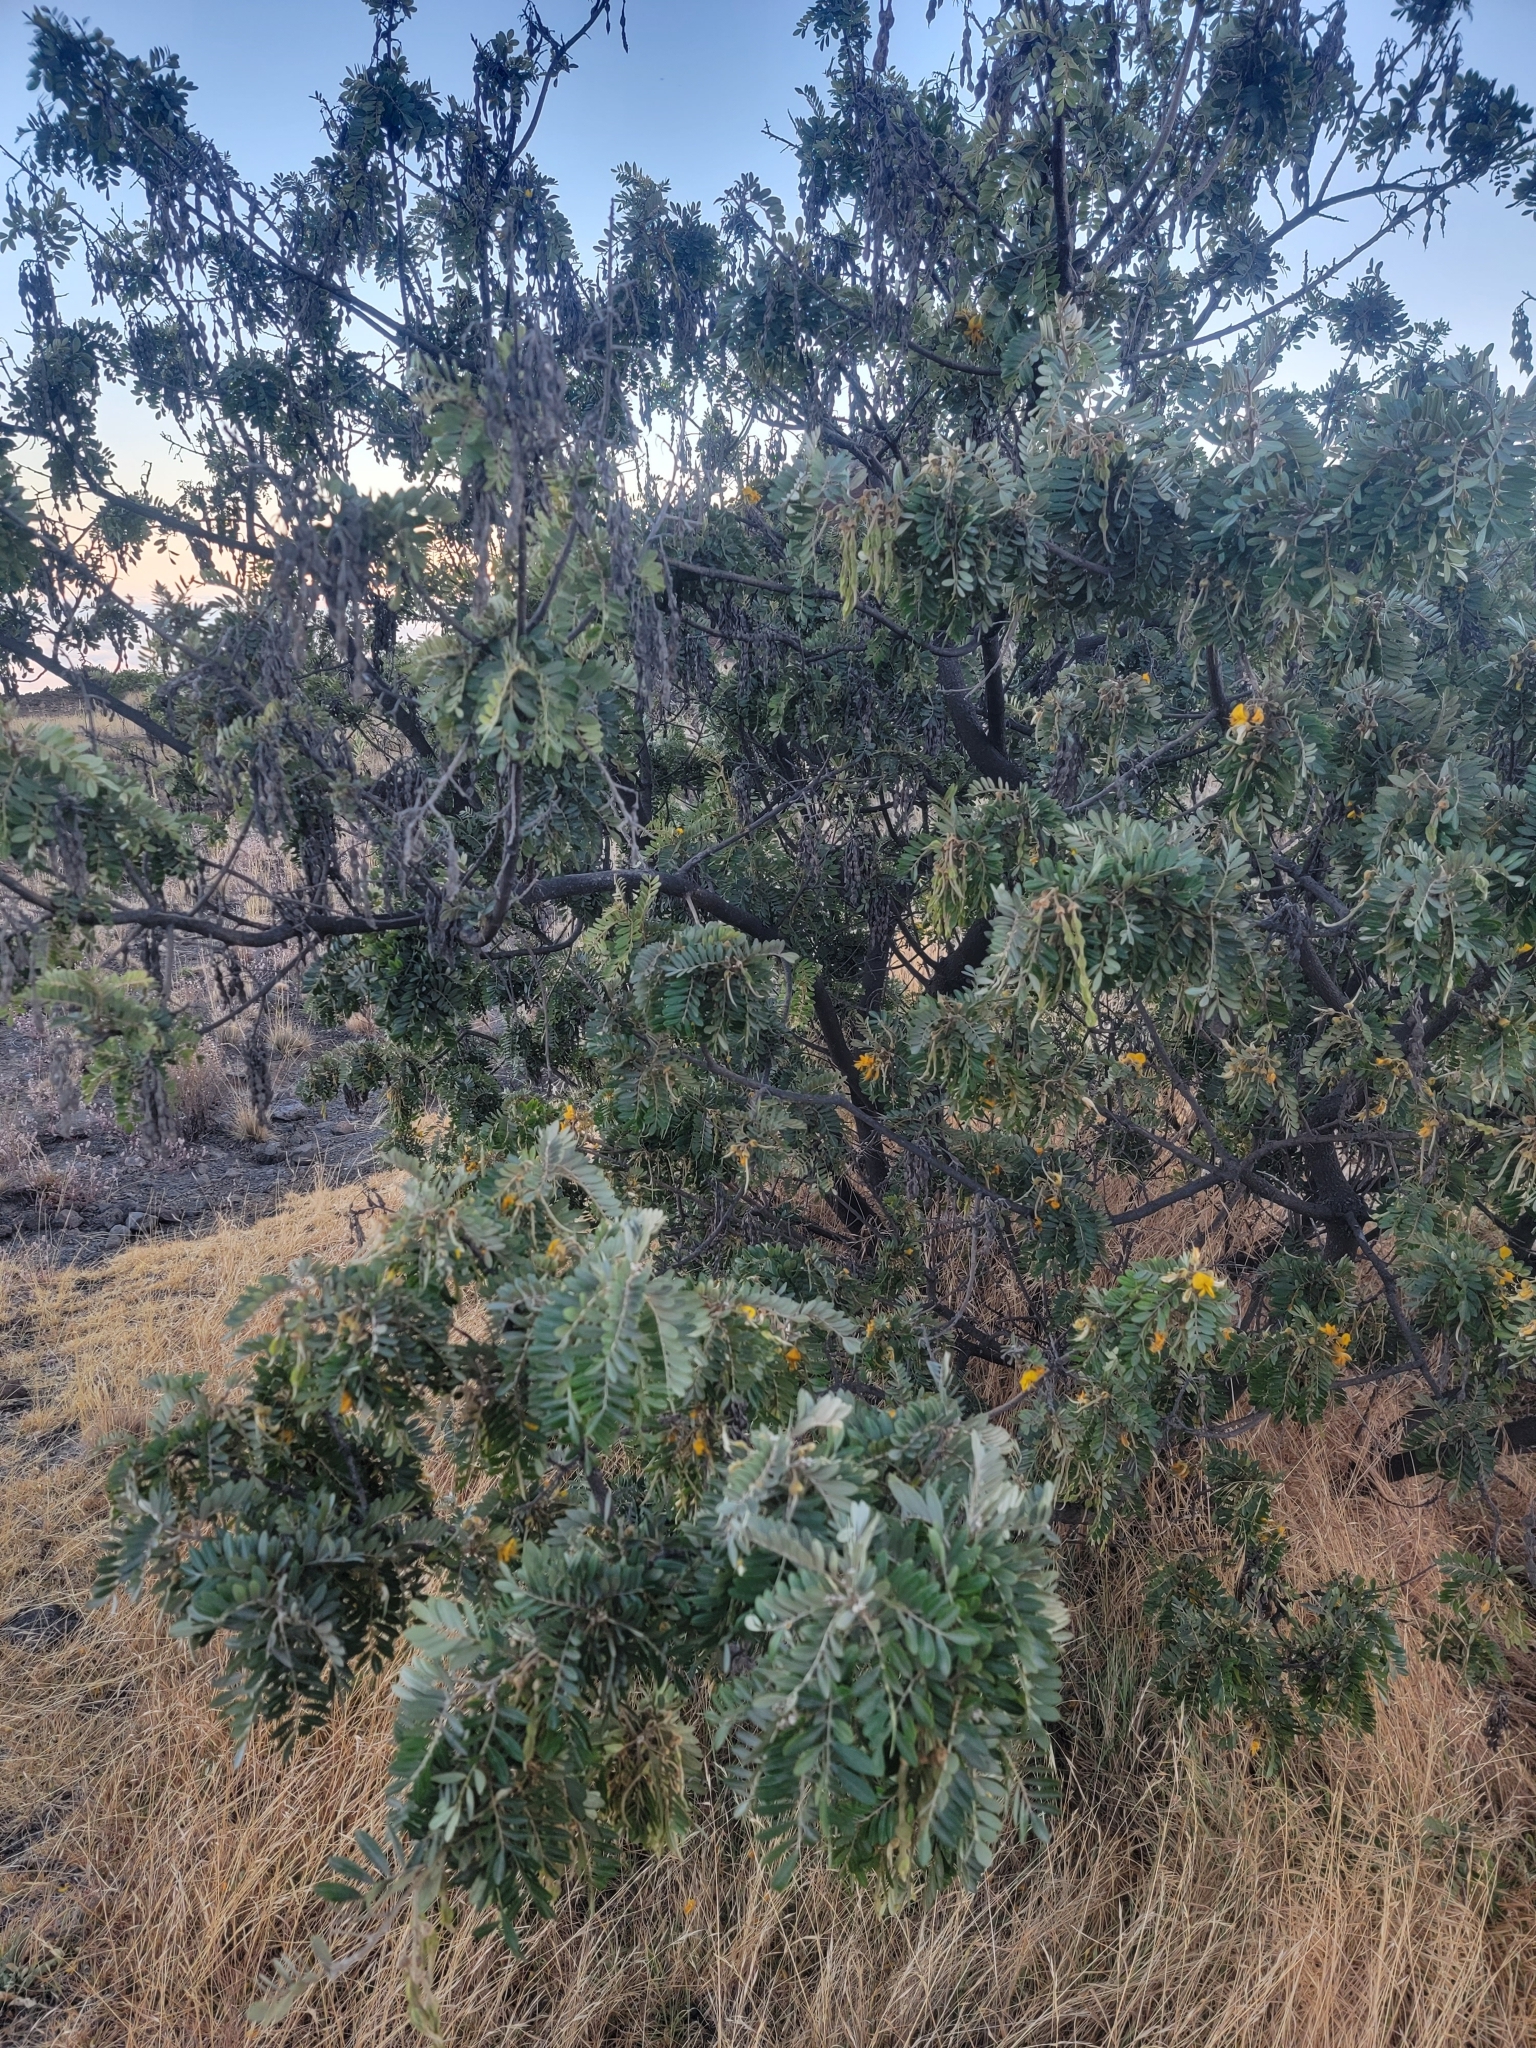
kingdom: Plantae
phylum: Tracheophyta
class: Magnoliopsida
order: Fabales
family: Fabaceae
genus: Sophora
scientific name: Sophora chrysophylla
